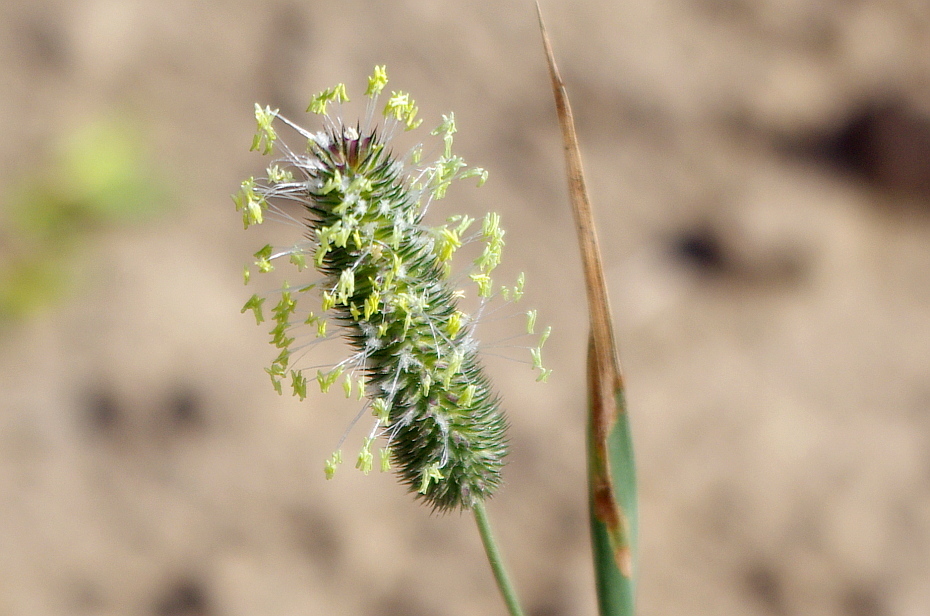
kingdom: Plantae
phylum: Tracheophyta
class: Liliopsida
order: Poales
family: Poaceae
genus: Phleum
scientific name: Phleum pratense
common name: Timothy grass
